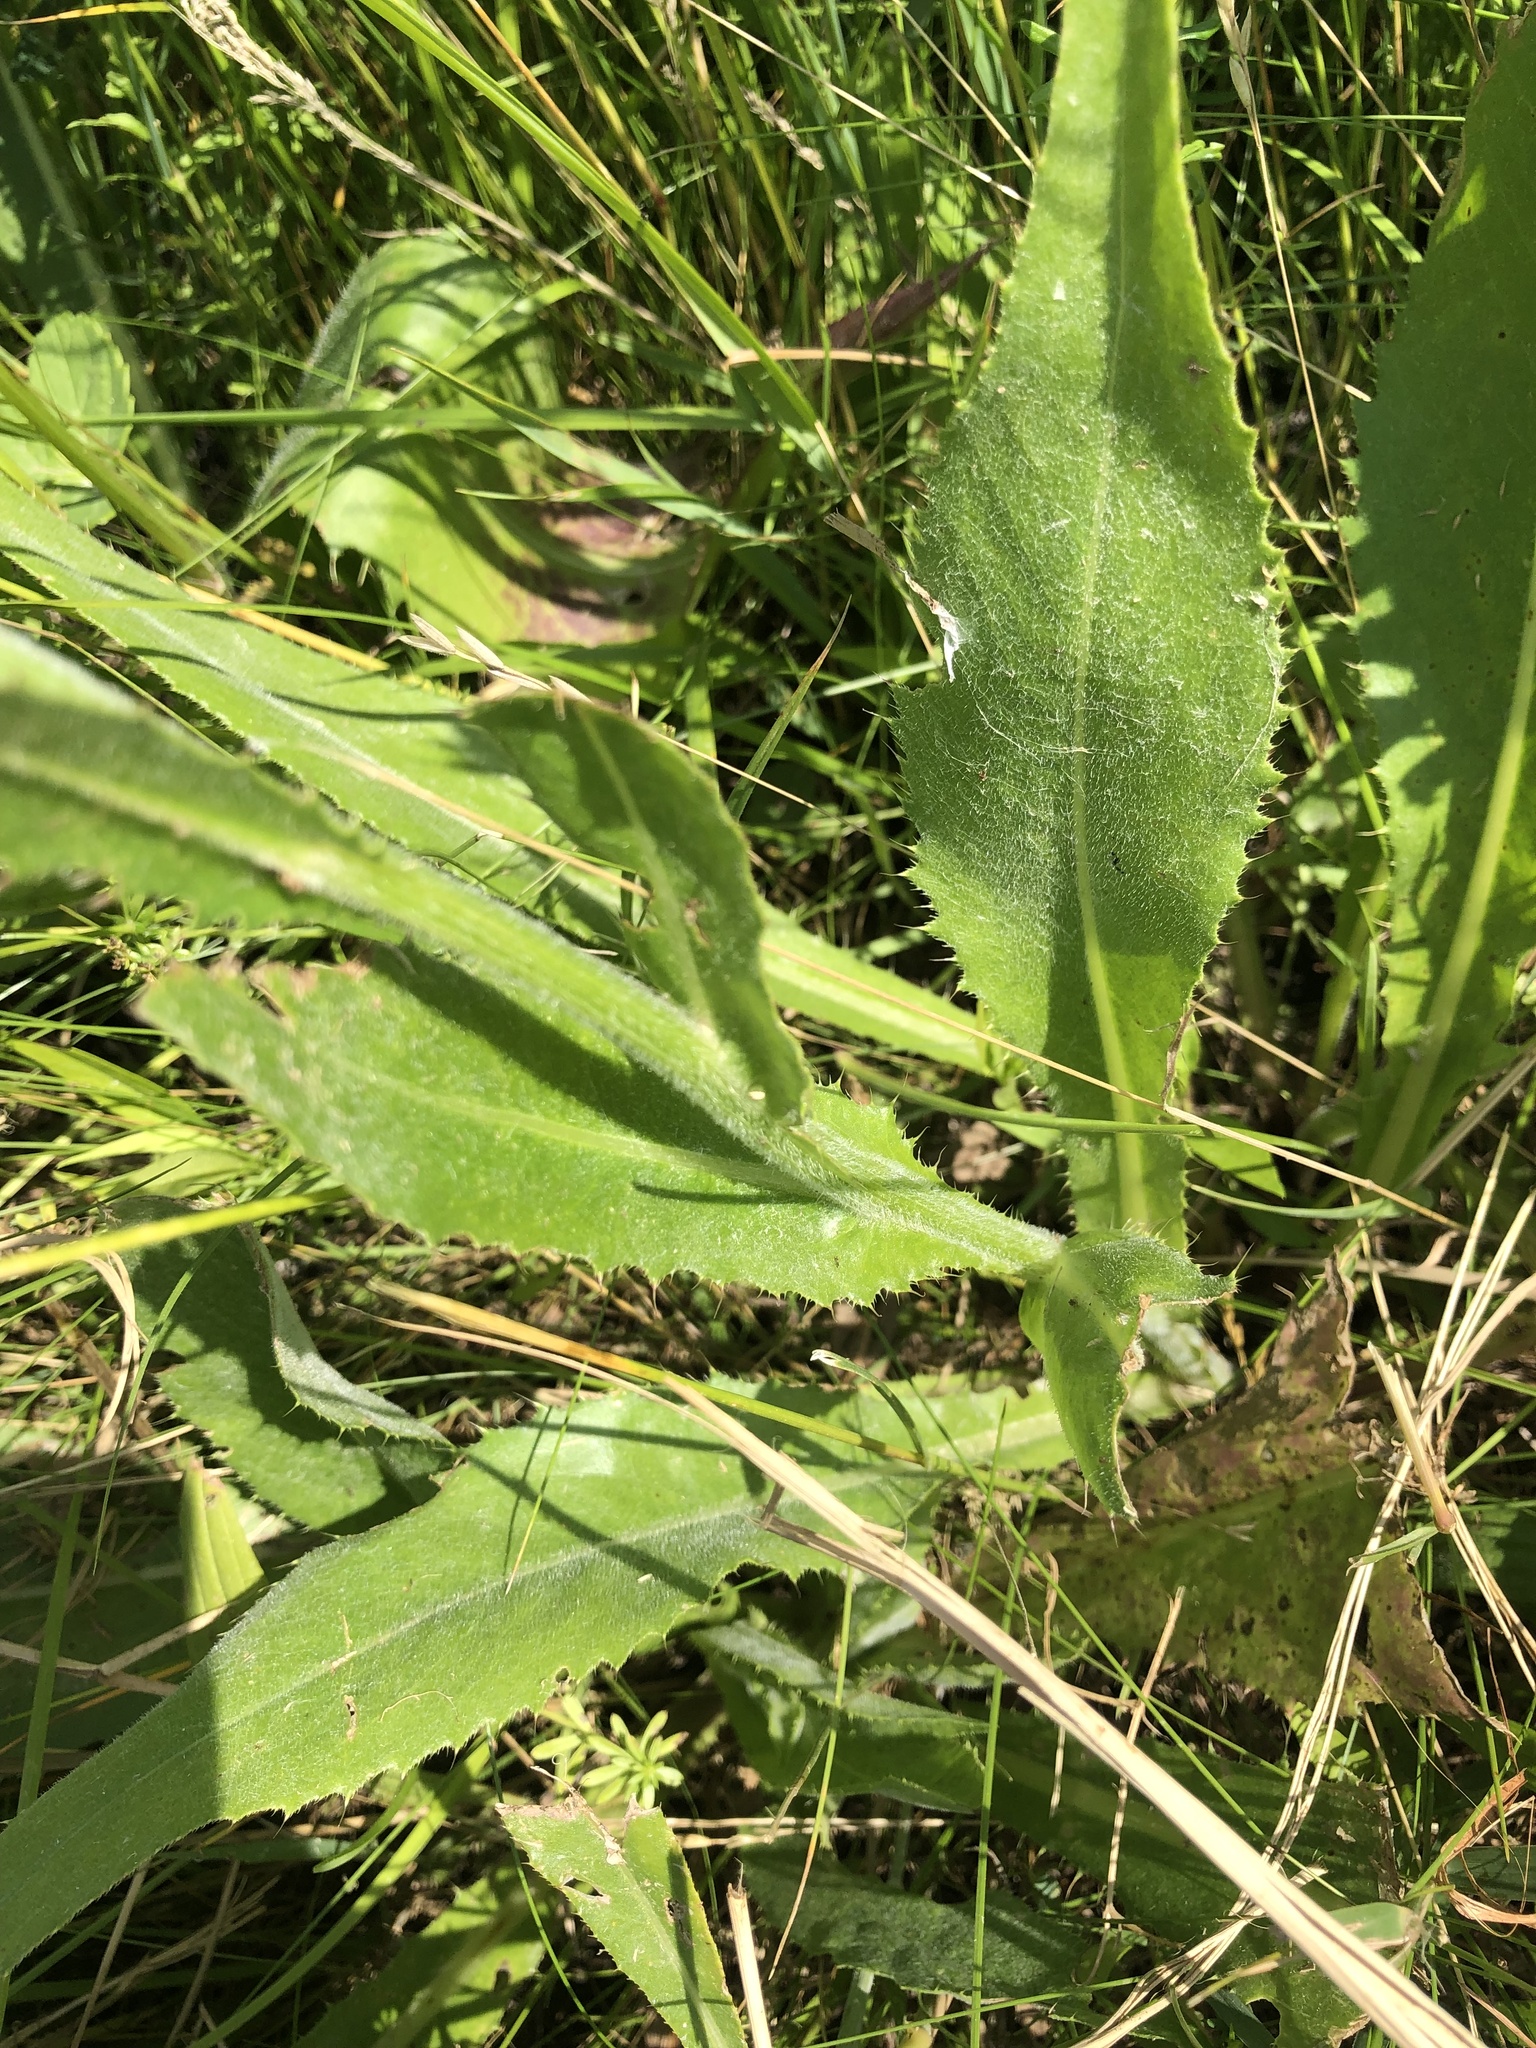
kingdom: Plantae
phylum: Tracheophyta
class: Magnoliopsida
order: Asterales
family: Asteraceae
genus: Cirsium
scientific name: Cirsium canum
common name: Queen anne's thistle
